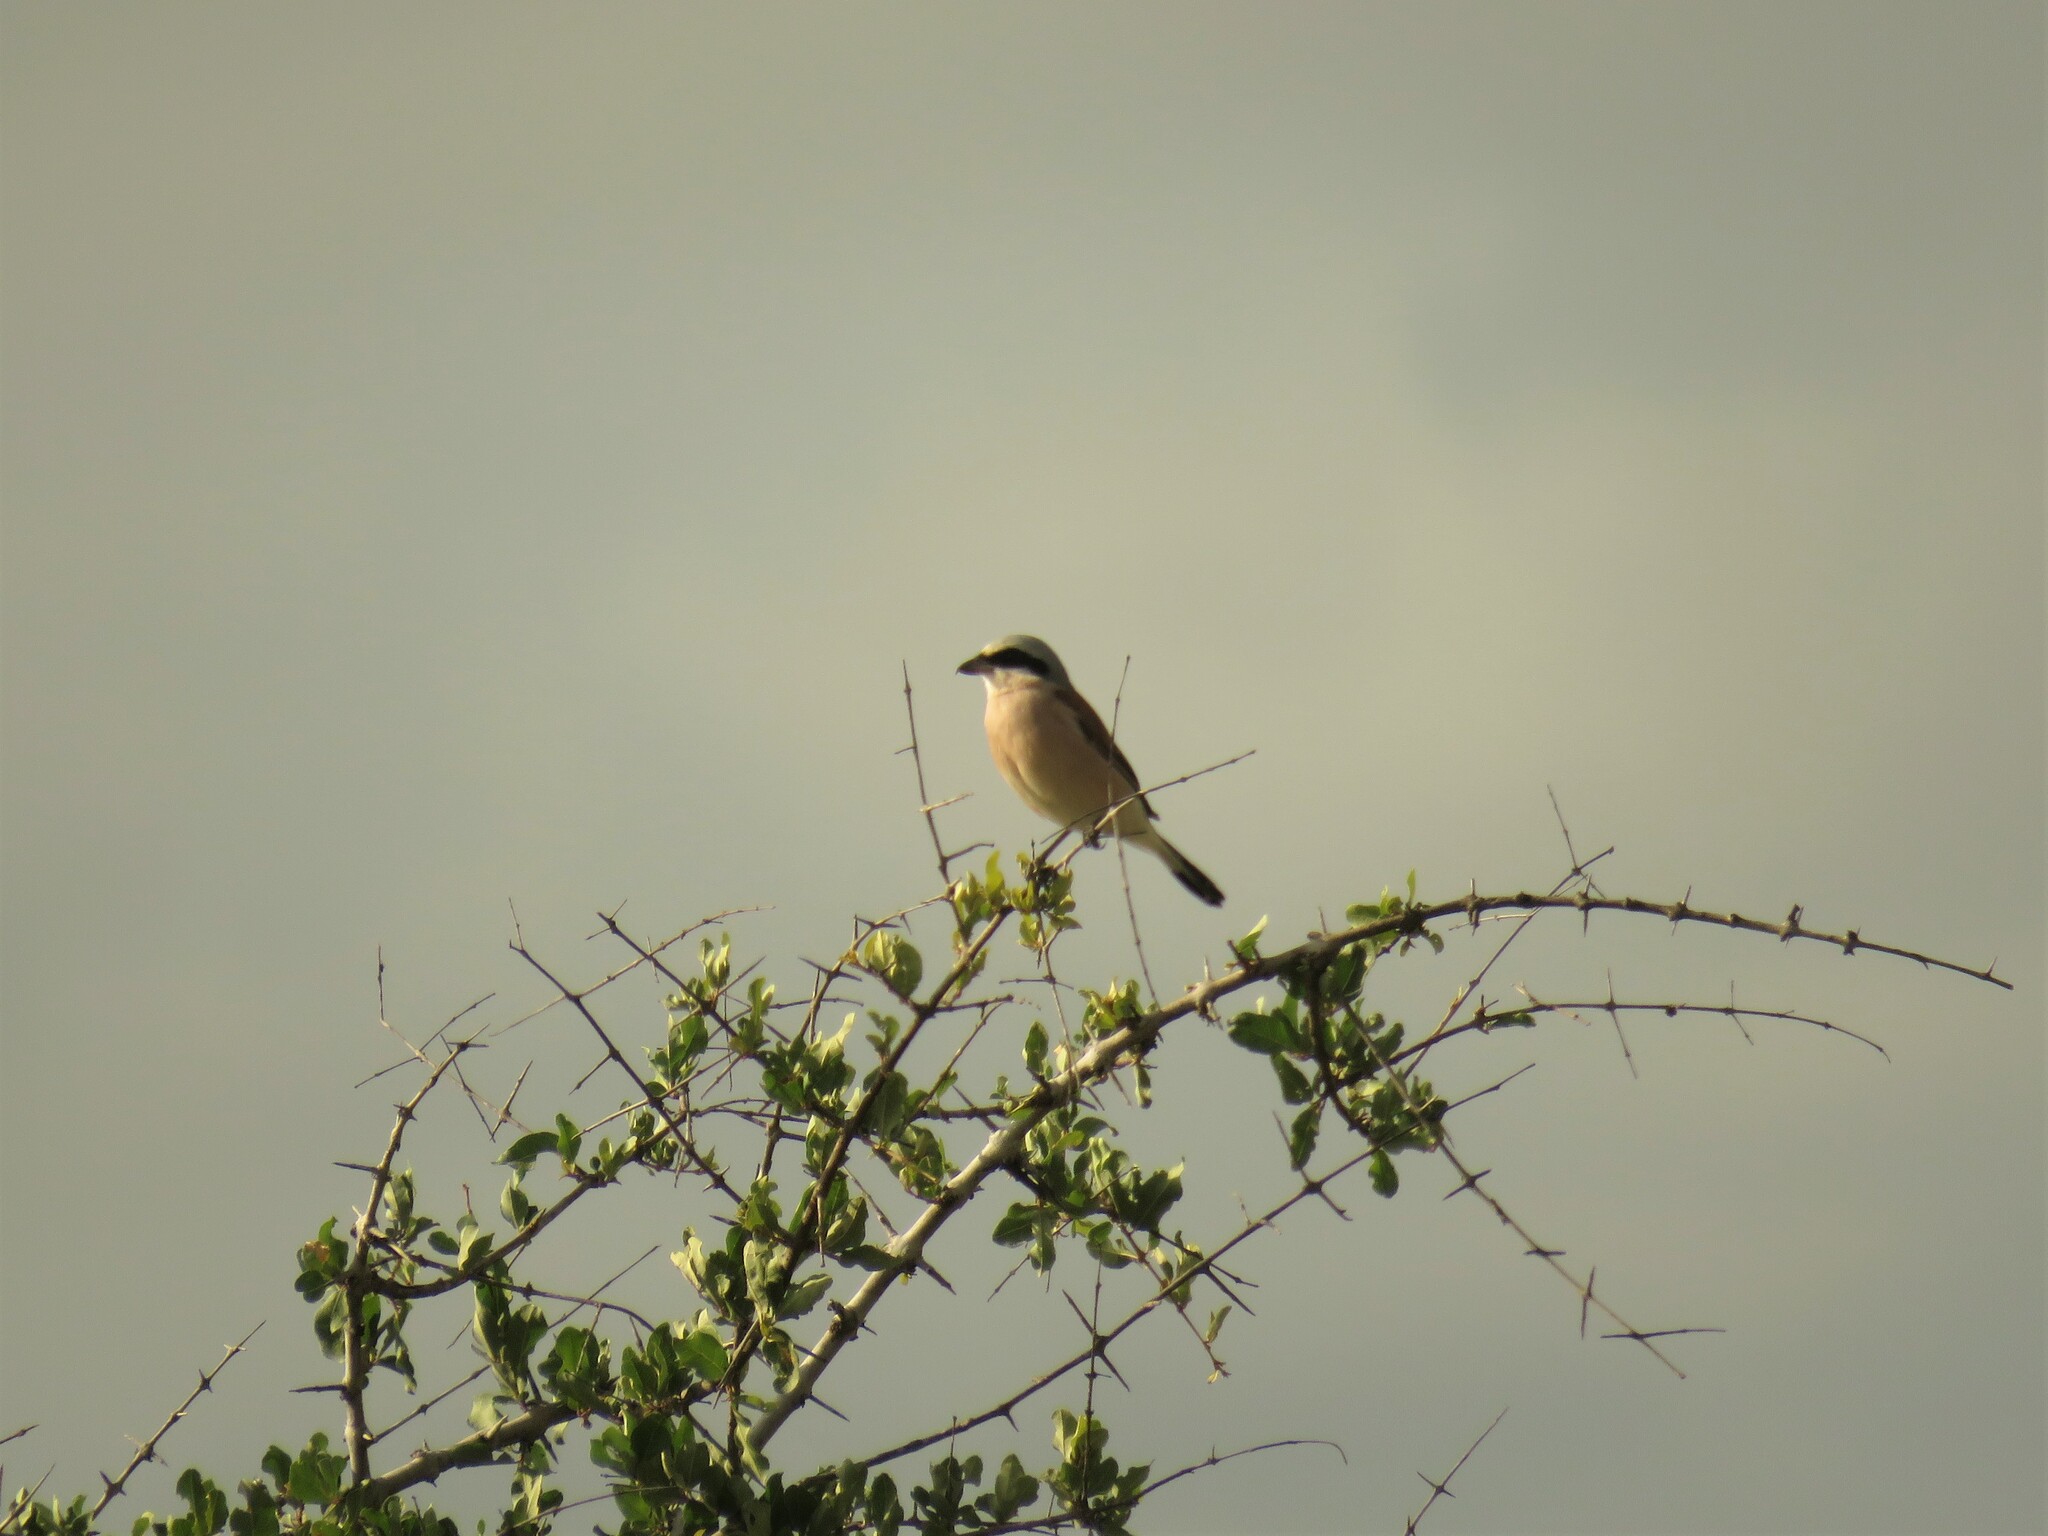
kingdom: Animalia
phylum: Chordata
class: Aves
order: Passeriformes
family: Laniidae
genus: Lanius
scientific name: Lanius collurio
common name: Red-backed shrike
